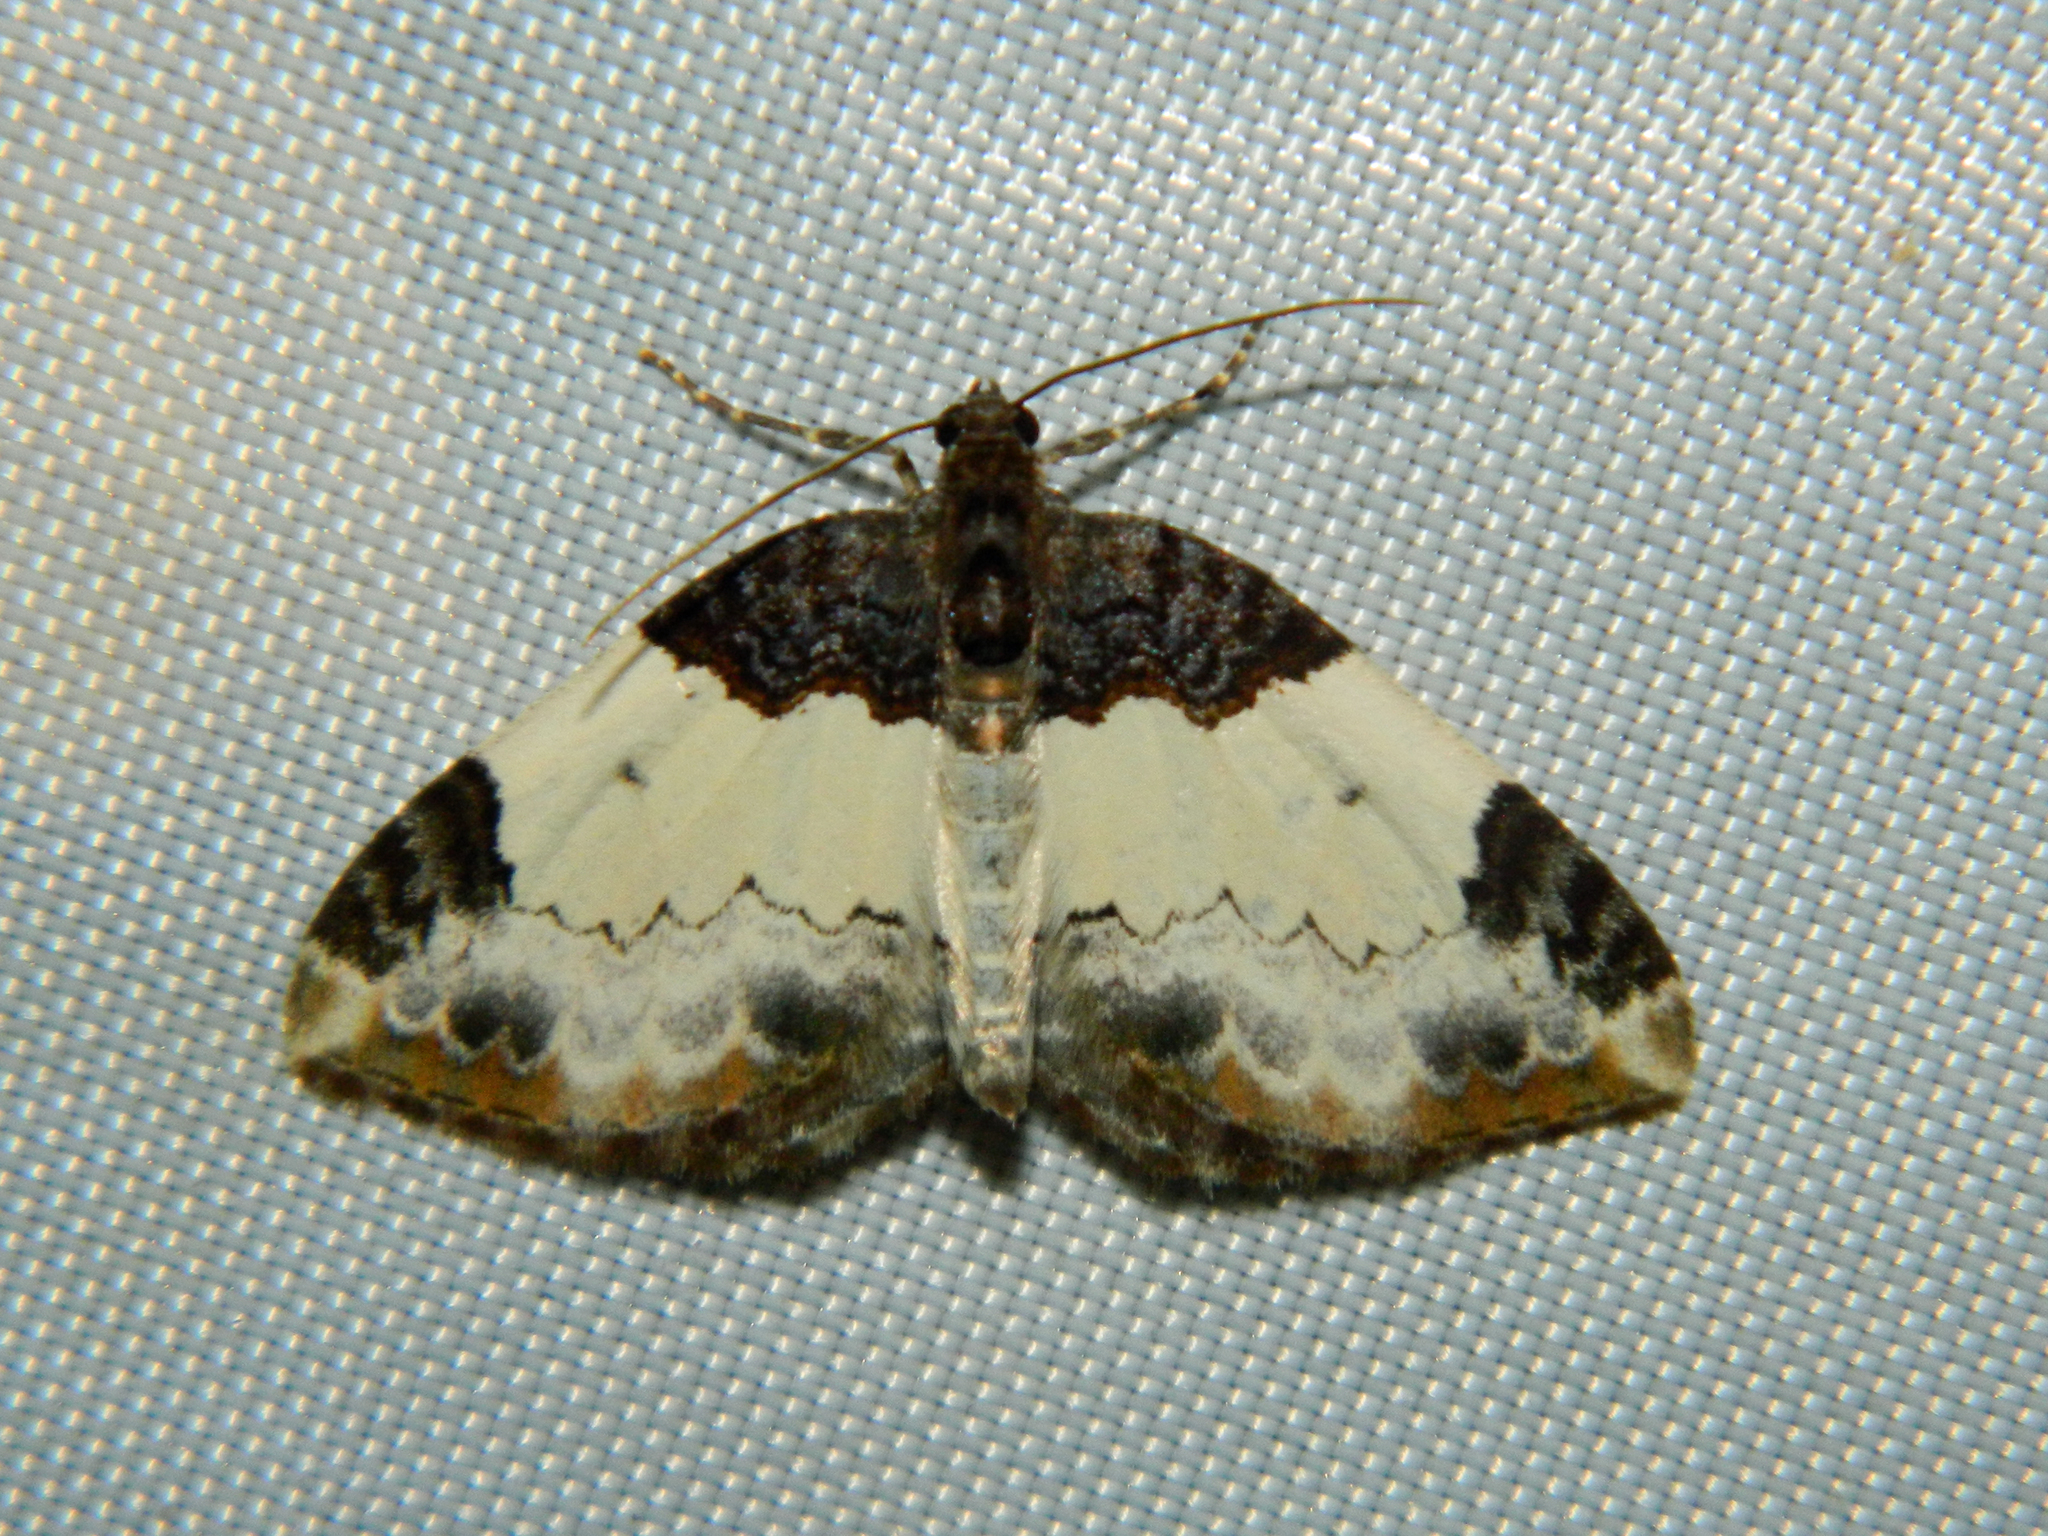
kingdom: Animalia
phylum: Arthropoda
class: Insecta
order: Lepidoptera
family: Geometridae
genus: Mesoleuca
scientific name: Mesoleuca ruficillata
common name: White-ribboned carpet moth
